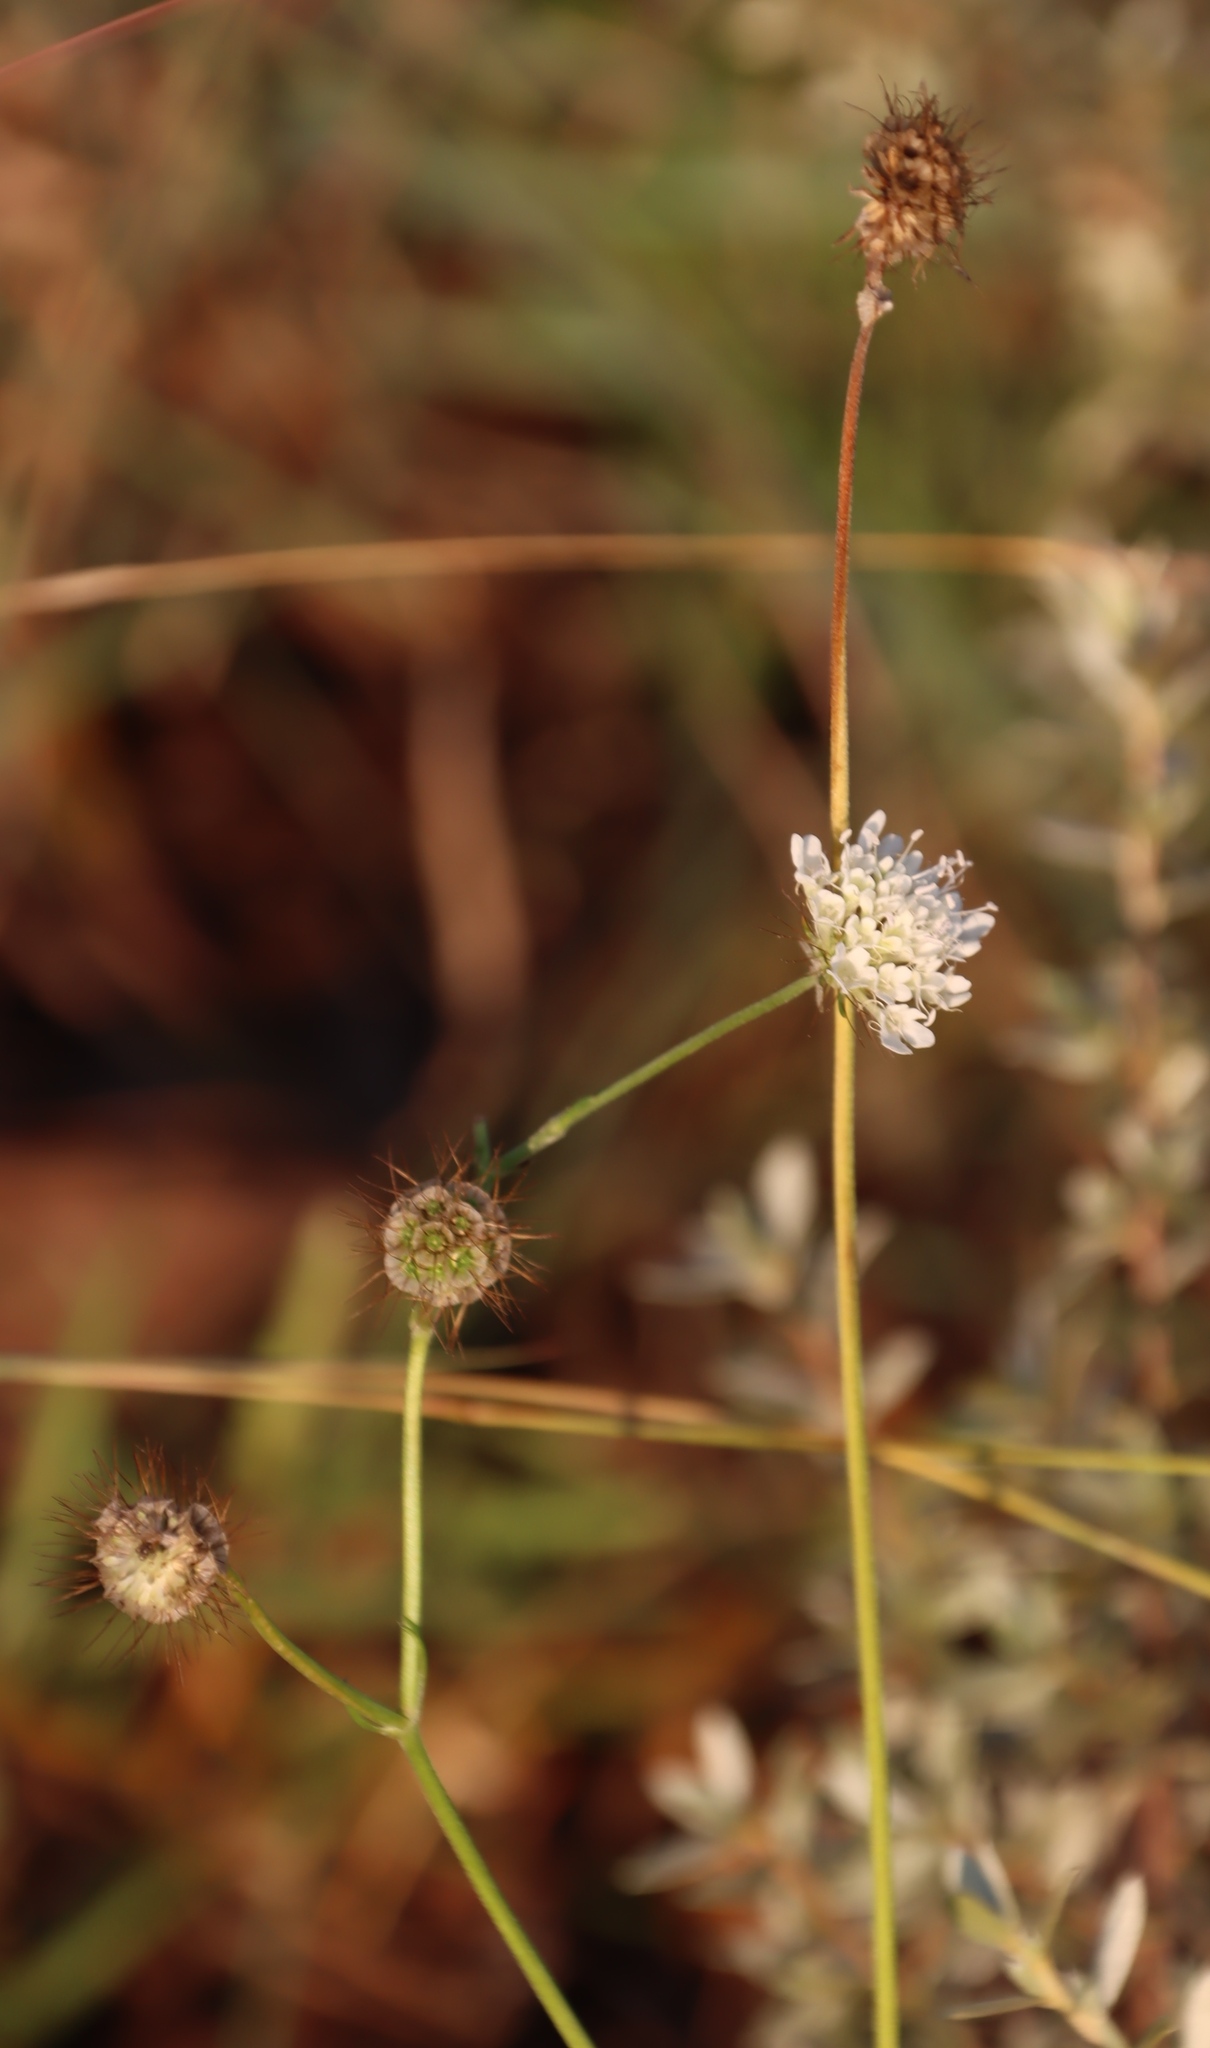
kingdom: Plantae
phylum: Tracheophyta
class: Magnoliopsida
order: Dipsacales
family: Caprifoliaceae
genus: Scabiosa
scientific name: Scabiosa columbaria
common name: Small scabious
